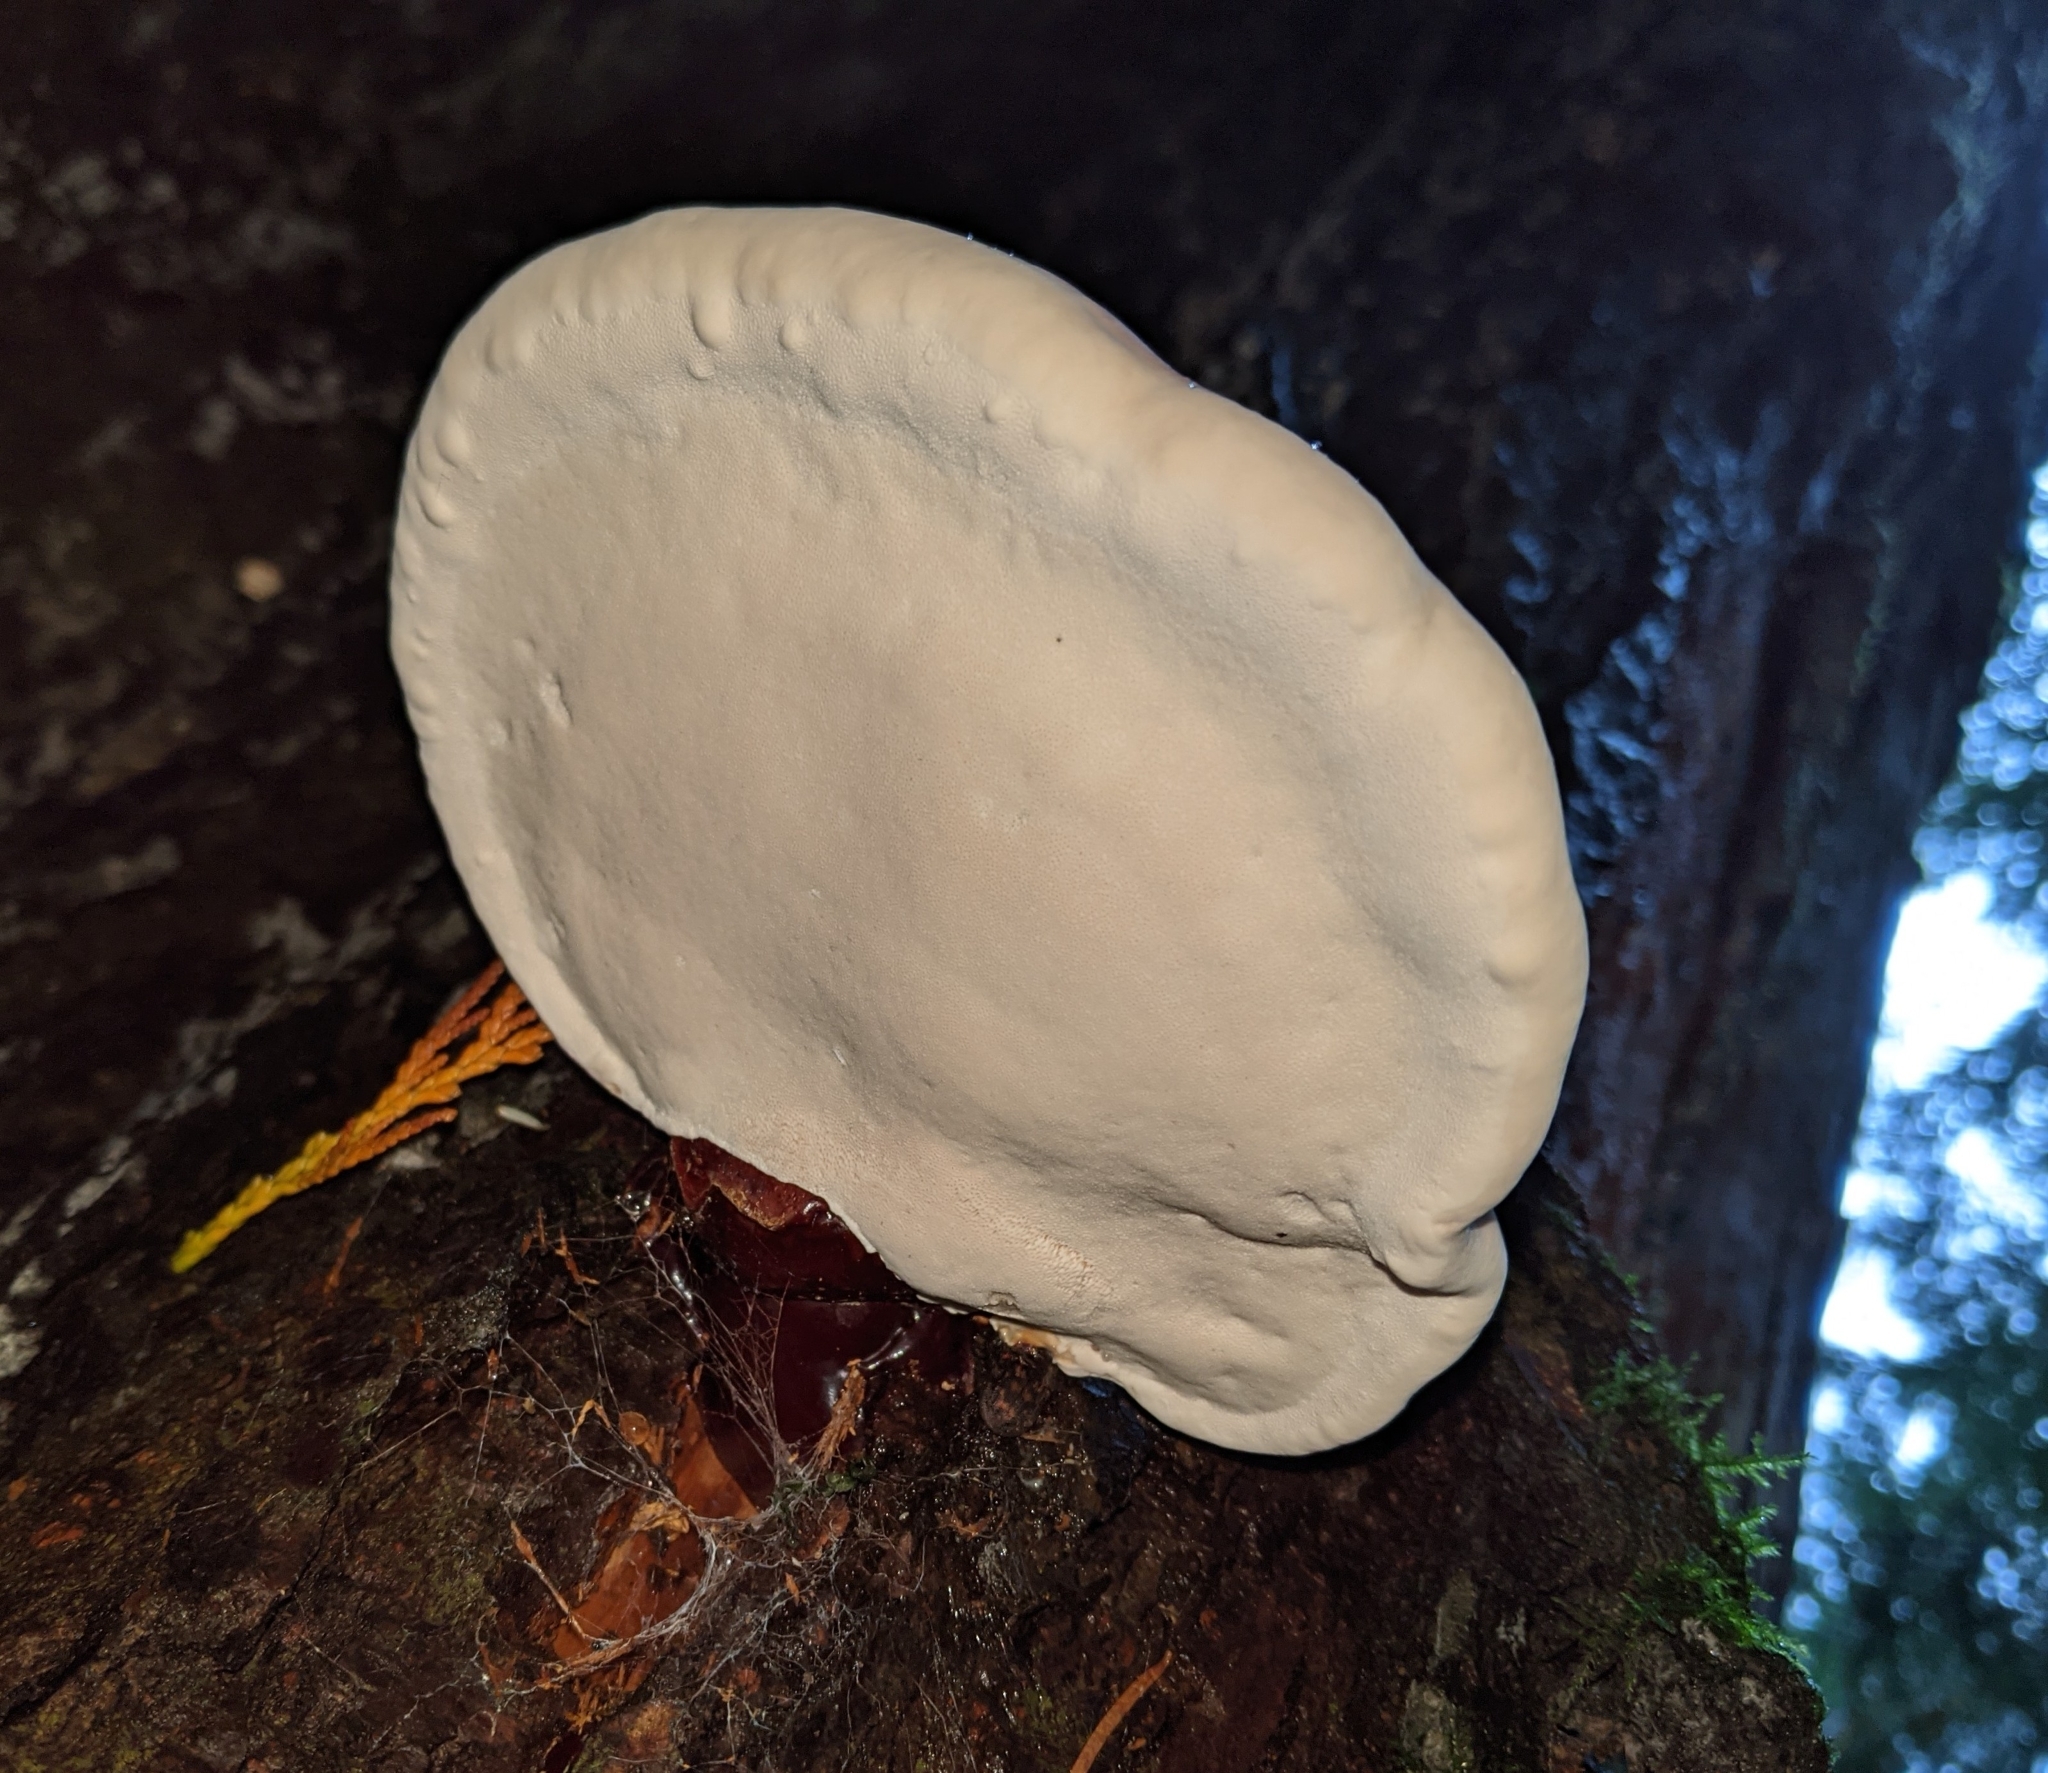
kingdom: Fungi
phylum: Basidiomycota
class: Agaricomycetes
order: Polyporales
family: Polyporaceae
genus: Ganoderma
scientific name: Ganoderma oregonense
